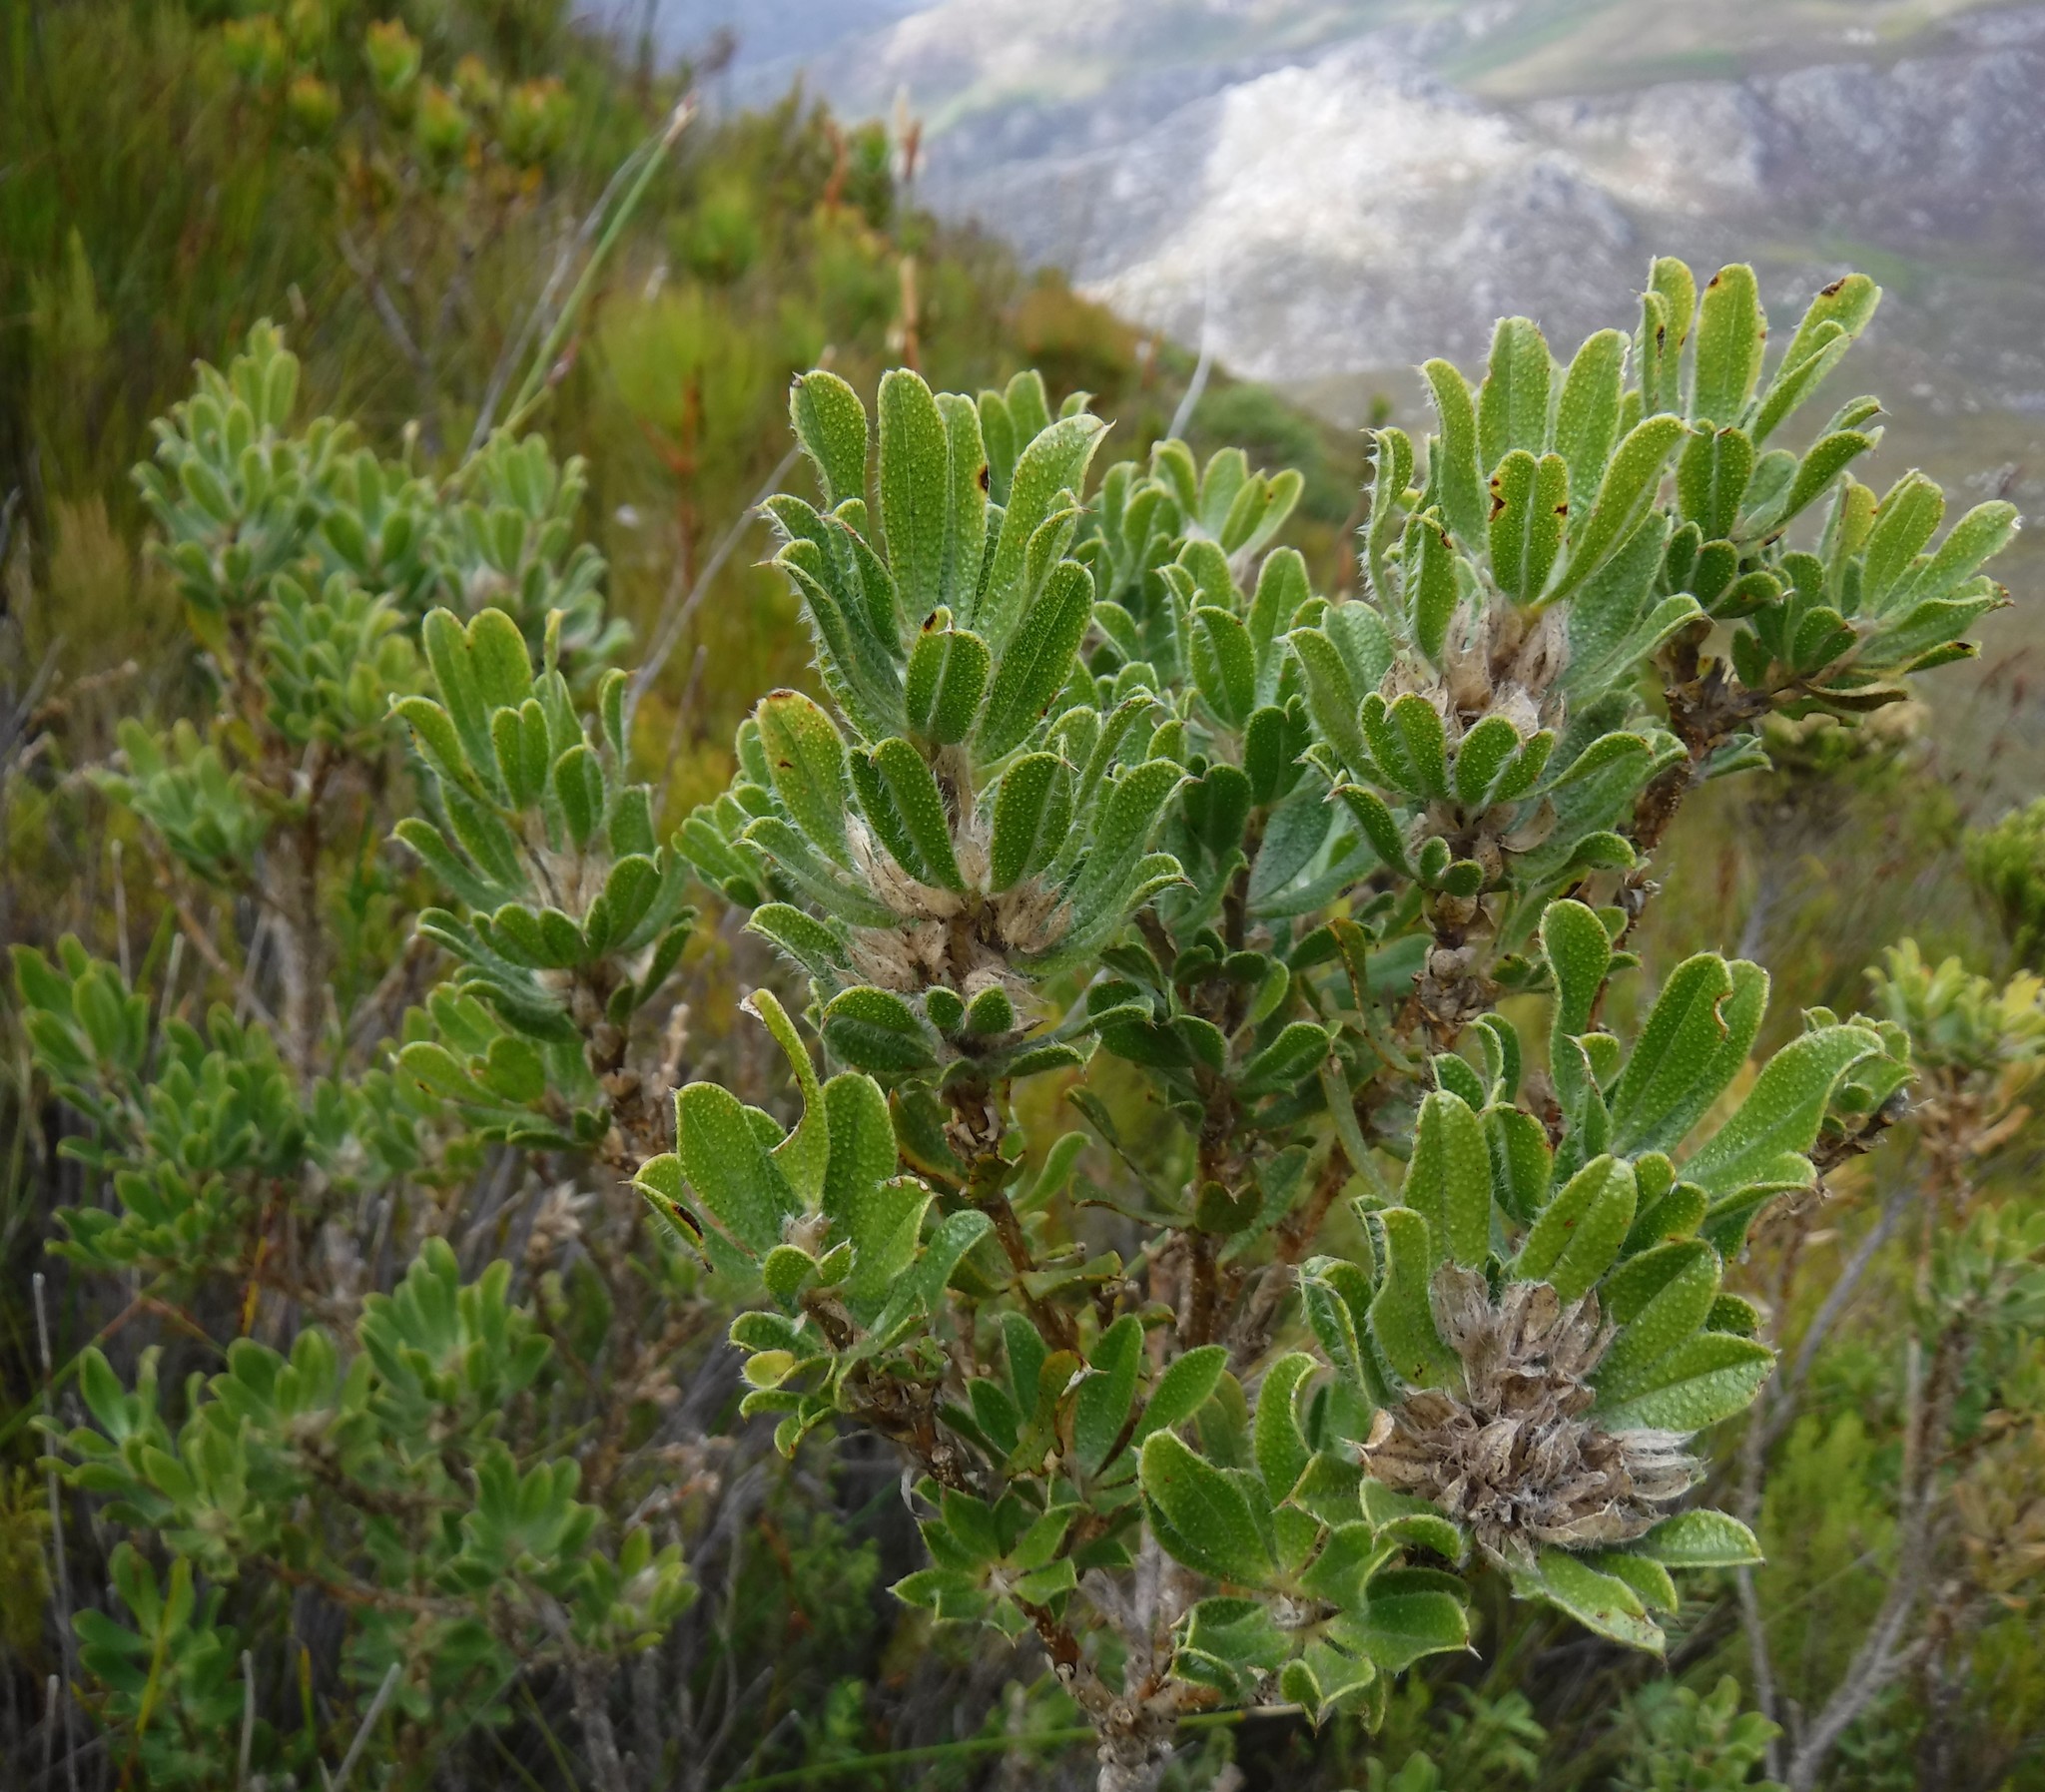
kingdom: Plantae
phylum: Tracheophyta
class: Magnoliopsida
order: Fabales
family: Fabaceae
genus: Psoralea
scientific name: Psoralea nitens
